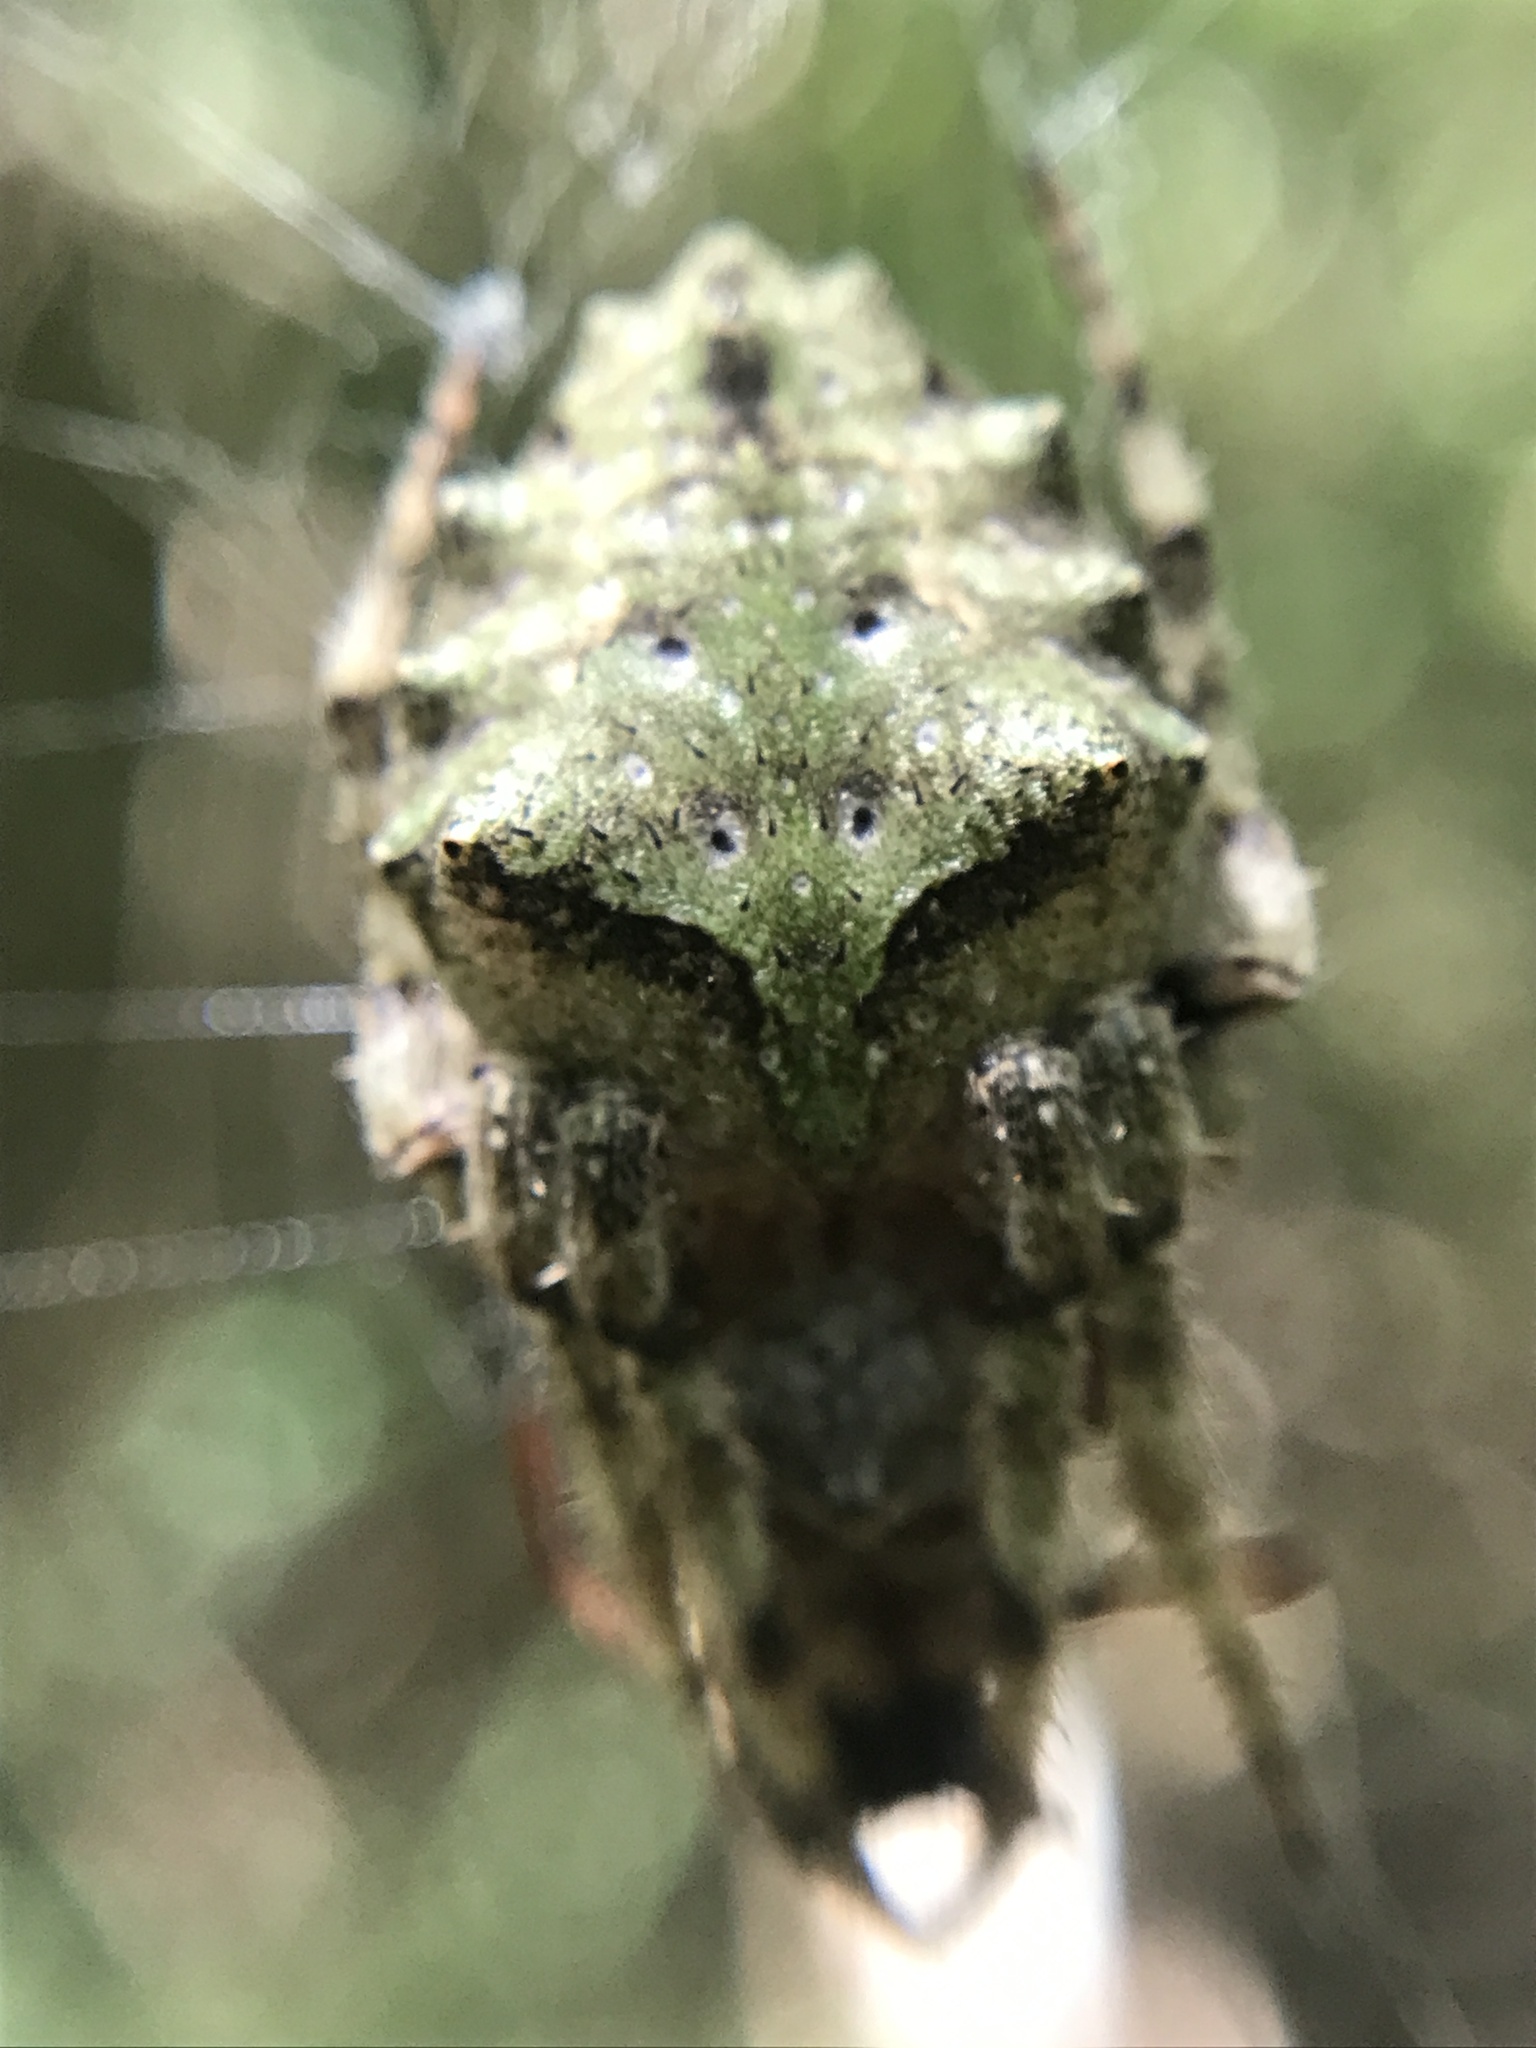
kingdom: Animalia
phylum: Arthropoda
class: Arachnida
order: Araneae
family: Araneidae
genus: Parawixia
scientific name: Parawixia audax
